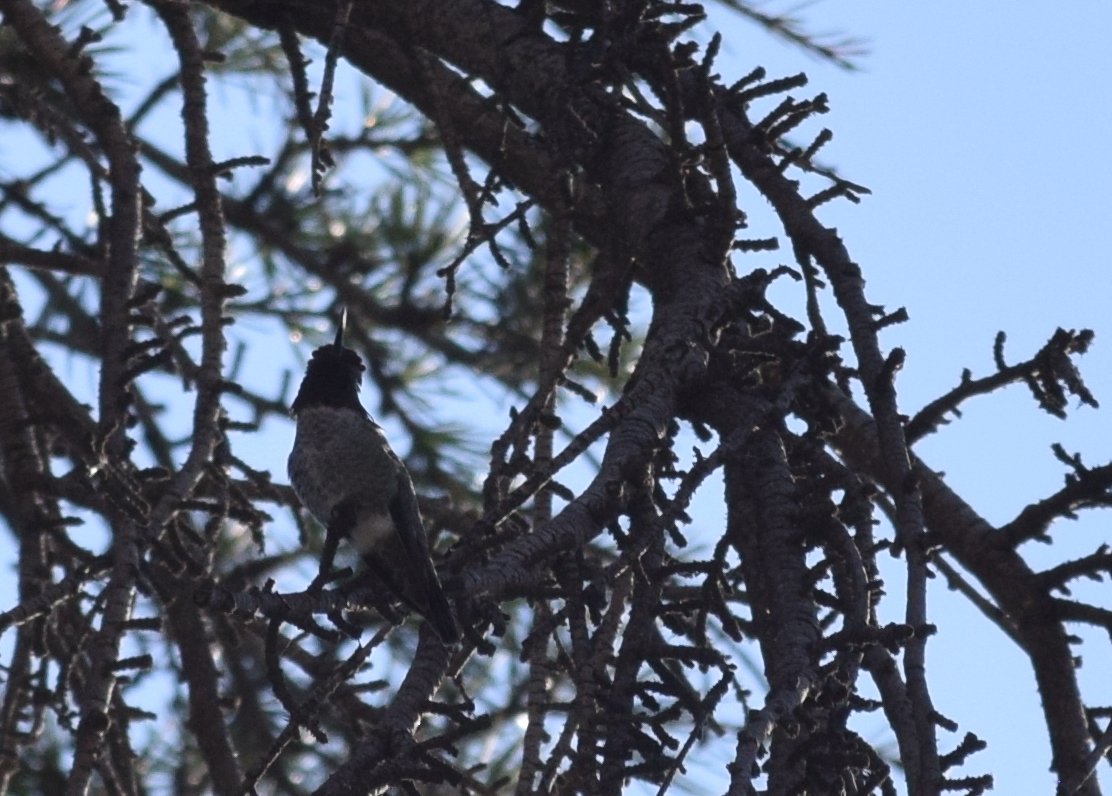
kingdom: Animalia
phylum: Chordata
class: Aves
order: Apodiformes
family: Trochilidae
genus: Calypte
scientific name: Calypte anna
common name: Anna's hummingbird
